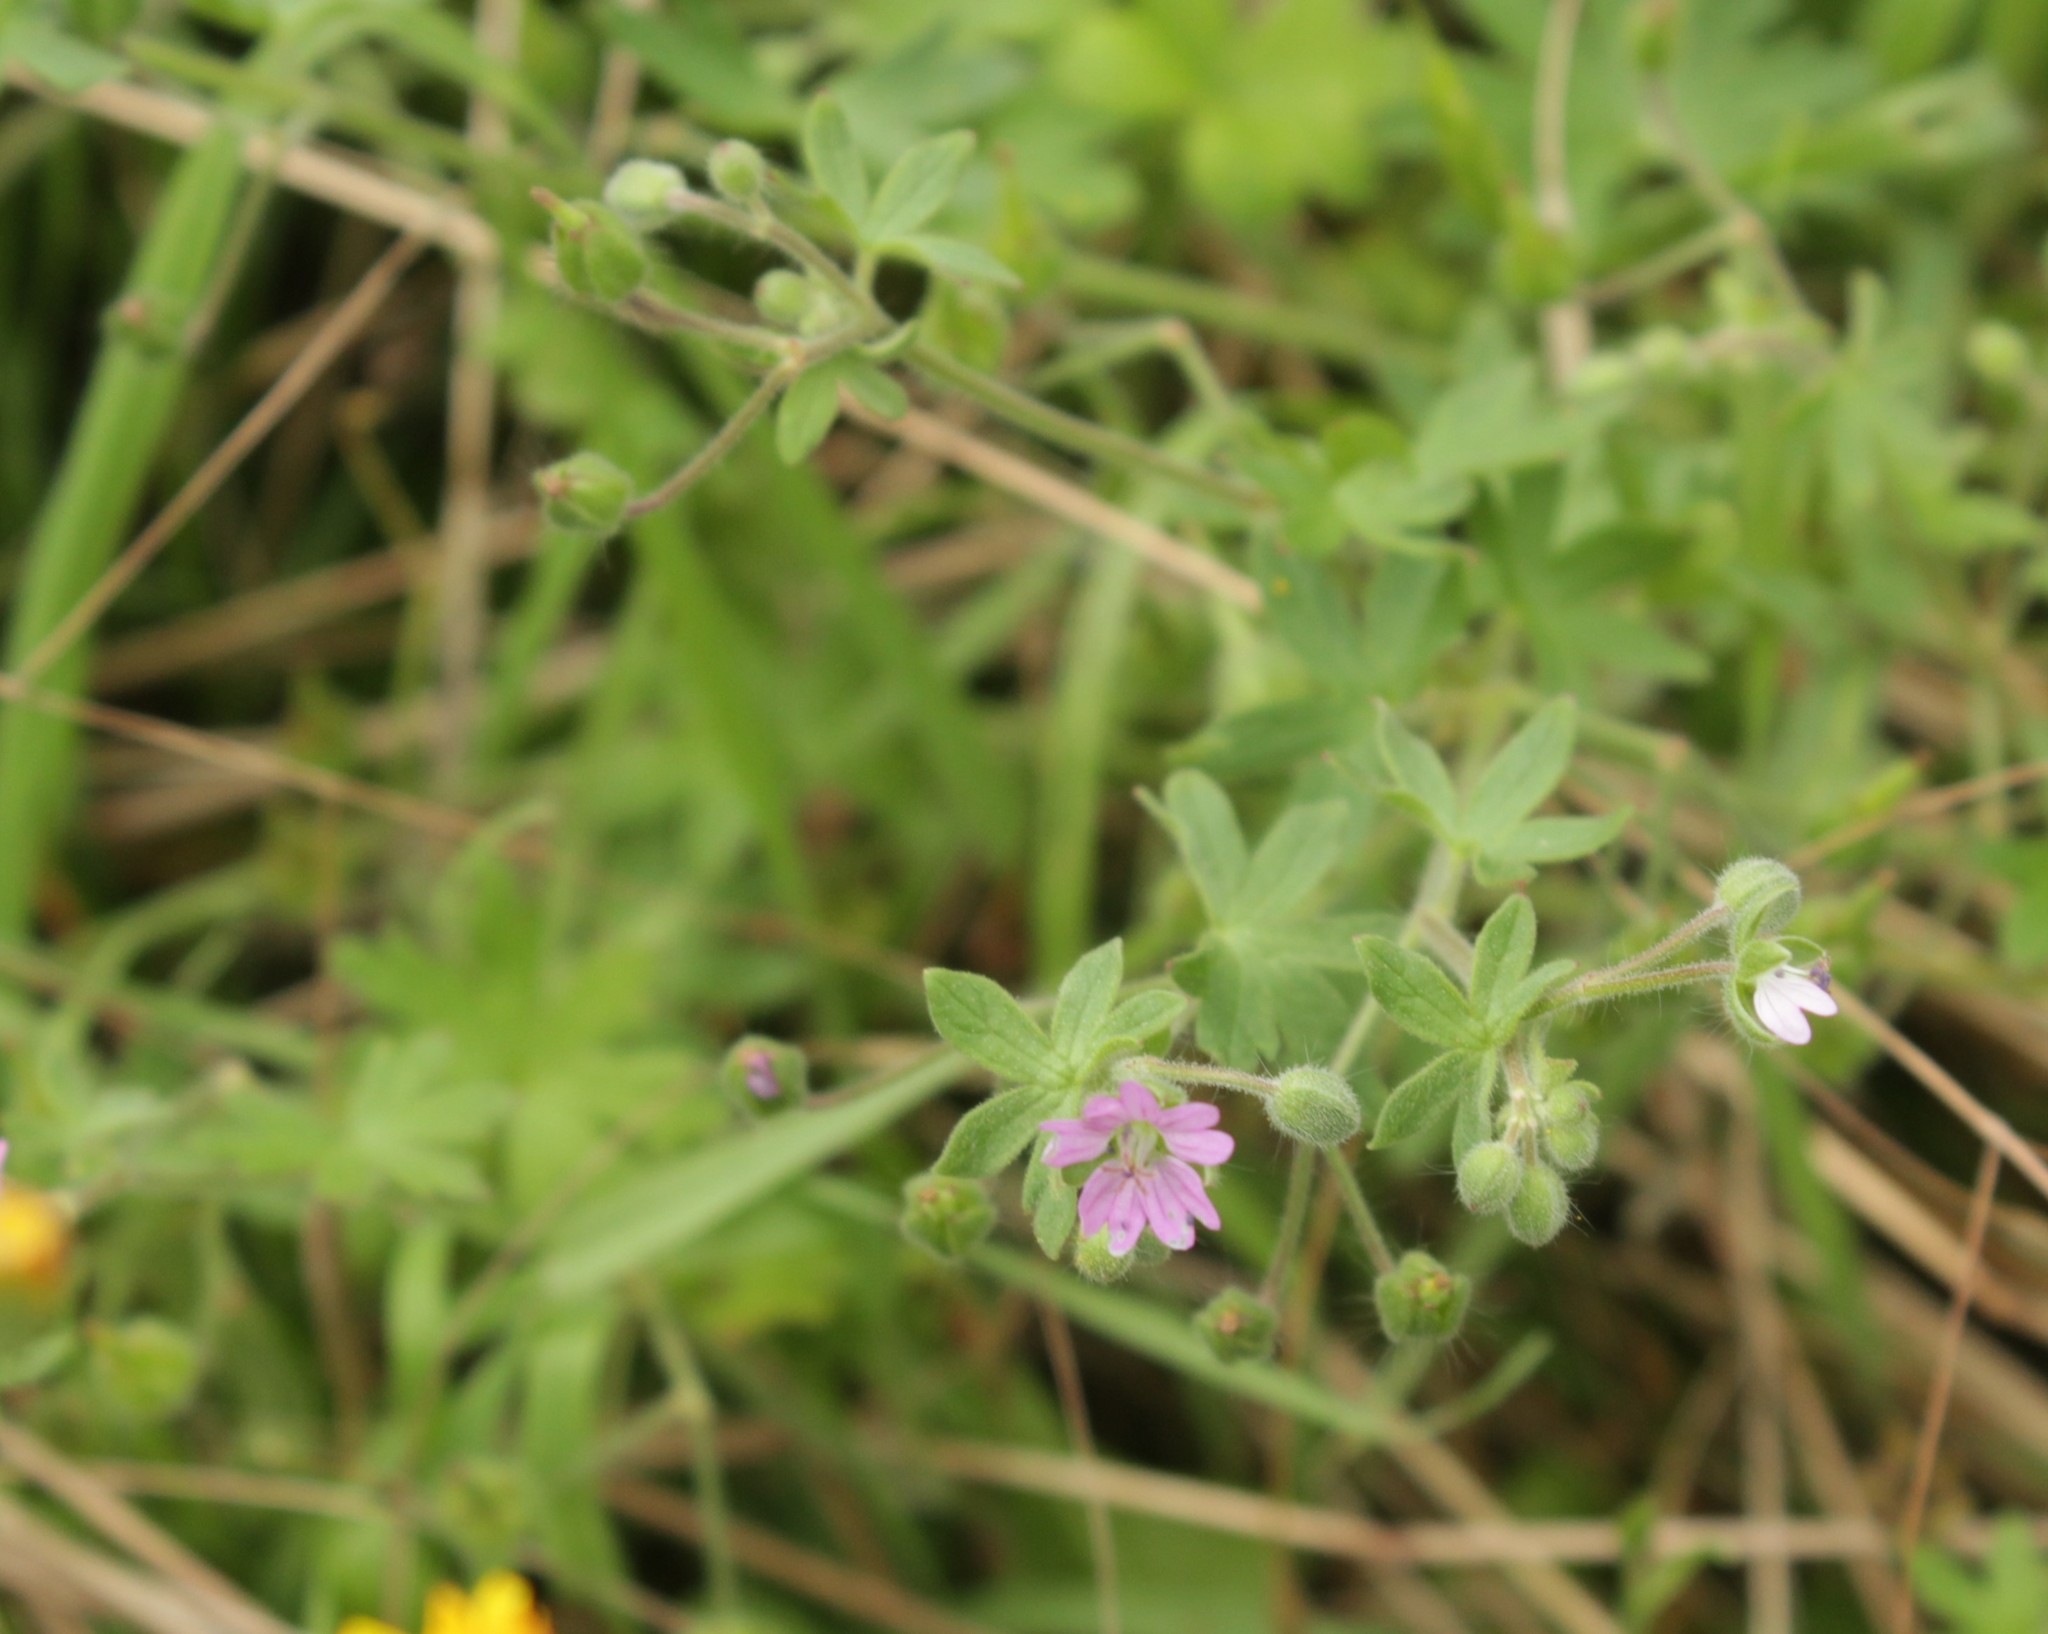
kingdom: Plantae
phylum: Tracheophyta
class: Magnoliopsida
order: Geraniales
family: Geraniaceae
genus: Geranium
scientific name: Geranium molle
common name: Dove's-foot crane's-bill
